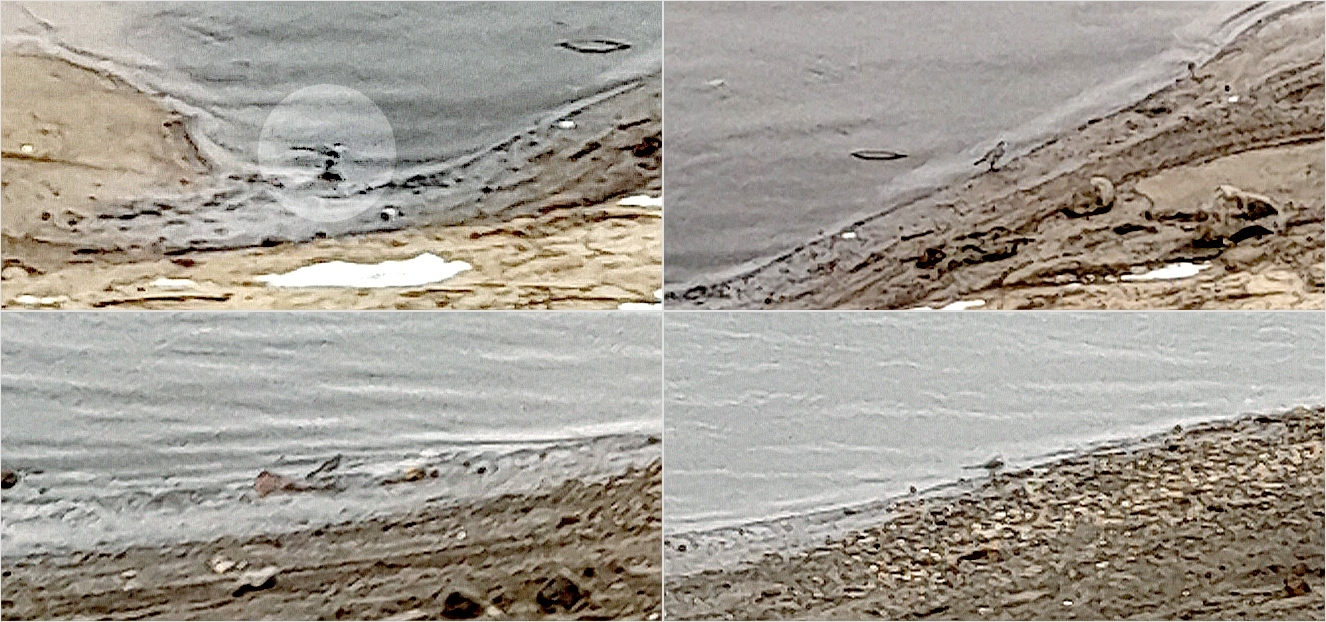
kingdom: Animalia
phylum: Chordata
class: Aves
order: Passeriformes
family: Motacillidae
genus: Motacilla
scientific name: Motacilla alba
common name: White wagtail
